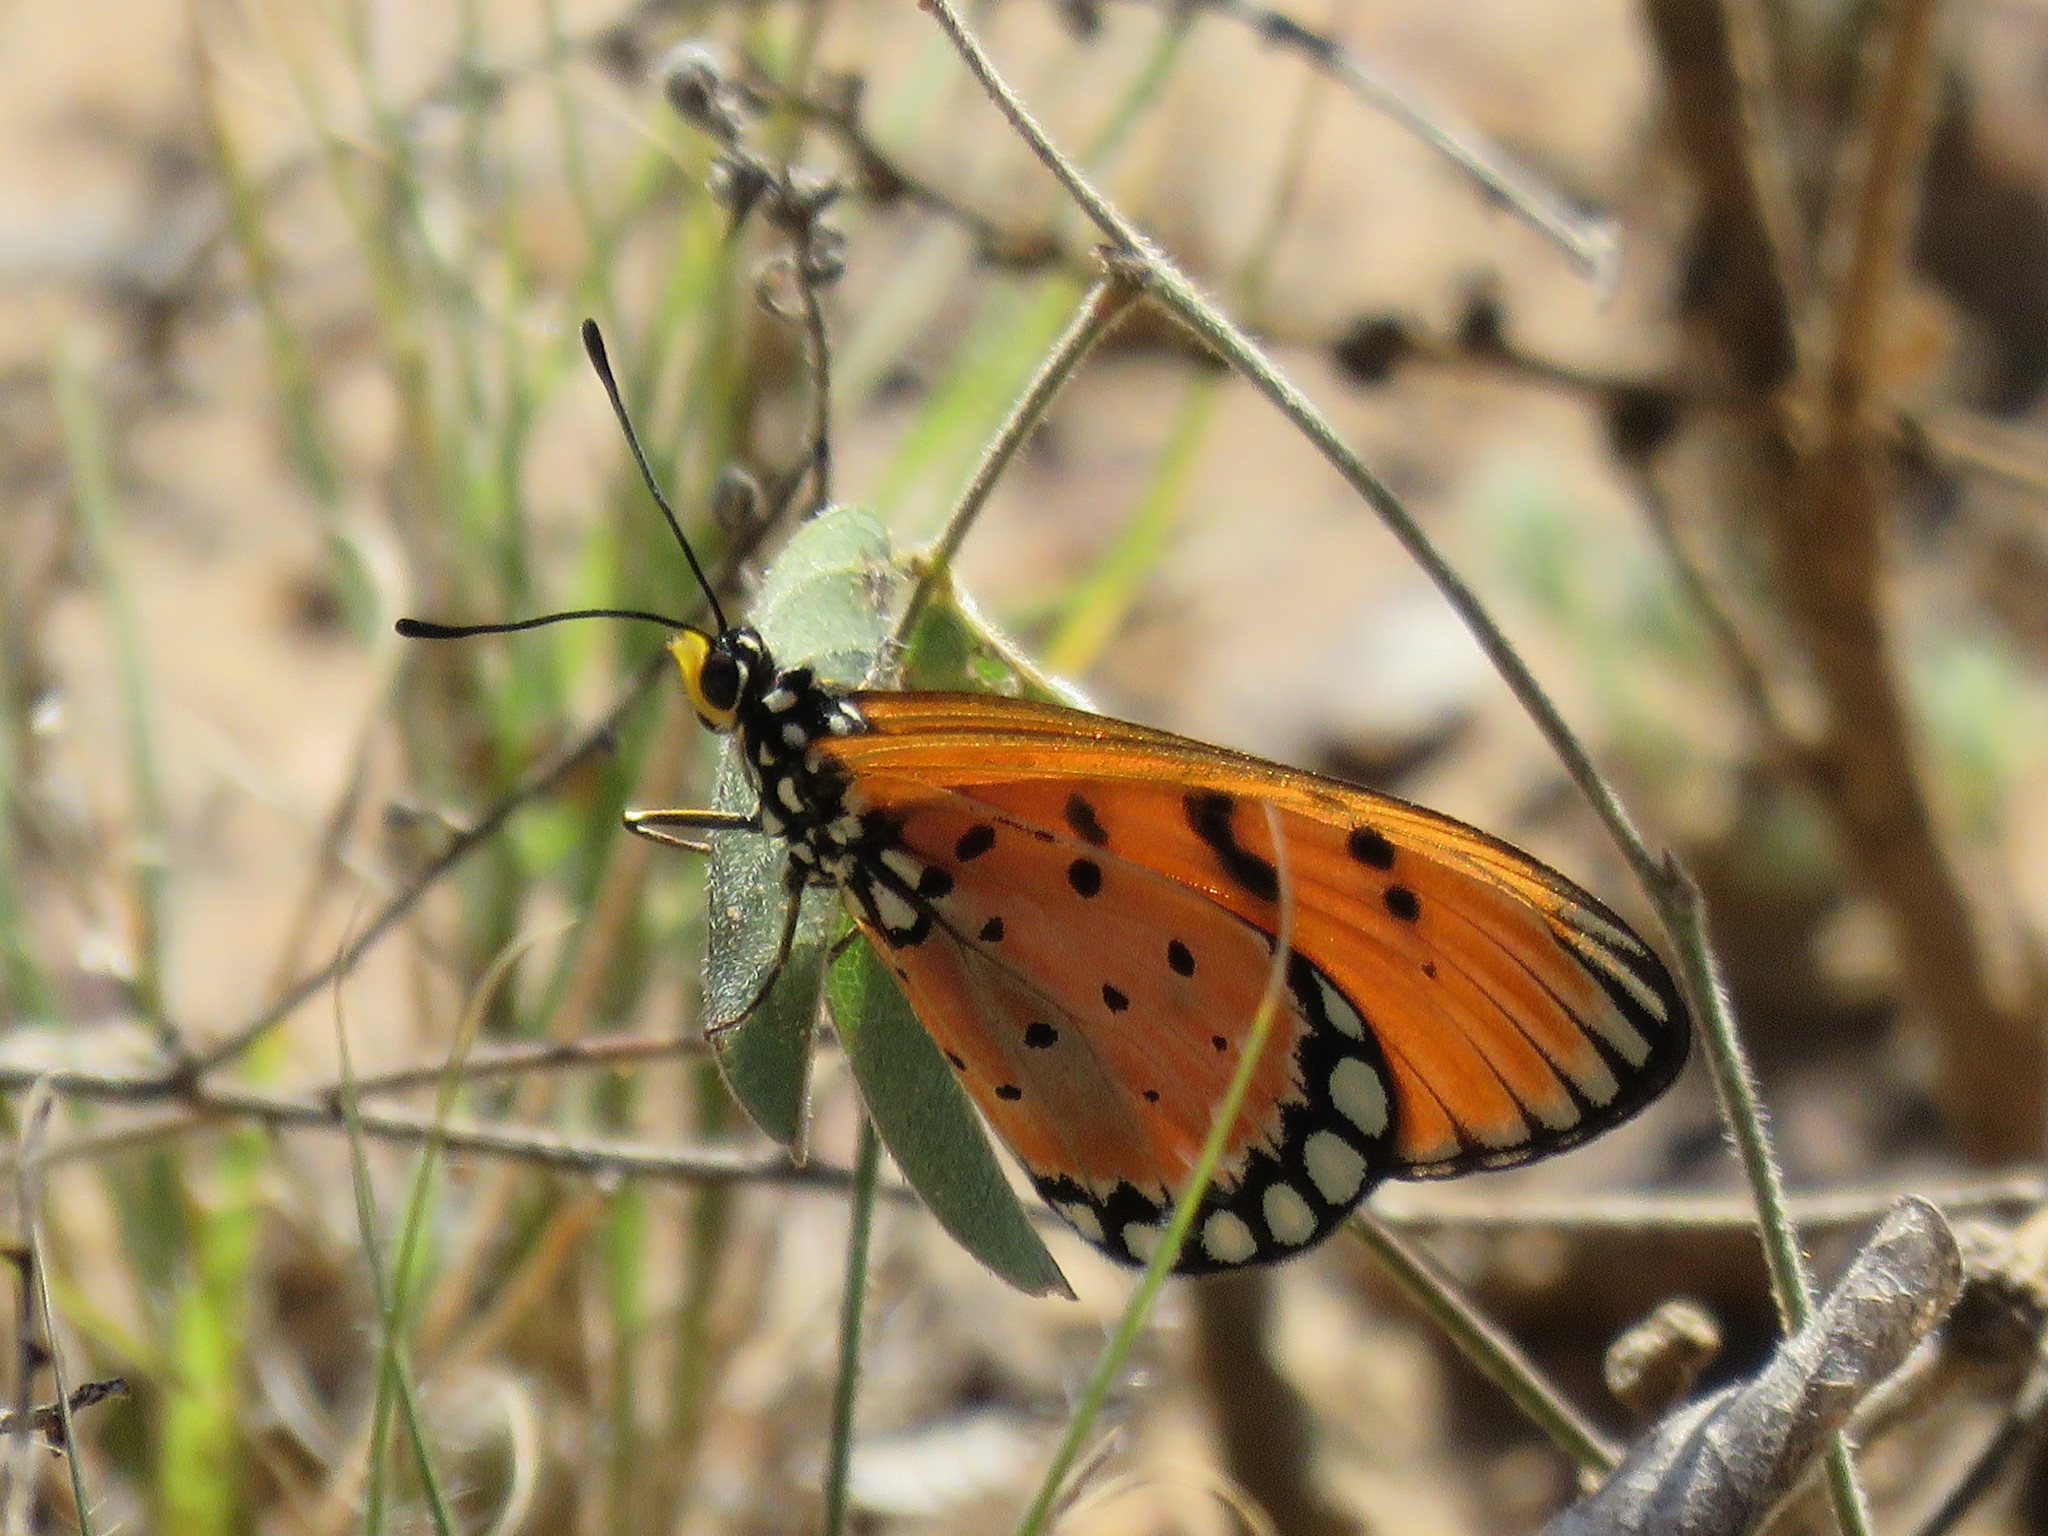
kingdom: Animalia
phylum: Arthropoda
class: Insecta
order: Lepidoptera
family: Nymphalidae
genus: Acraea
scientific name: Acraea terpsicore
